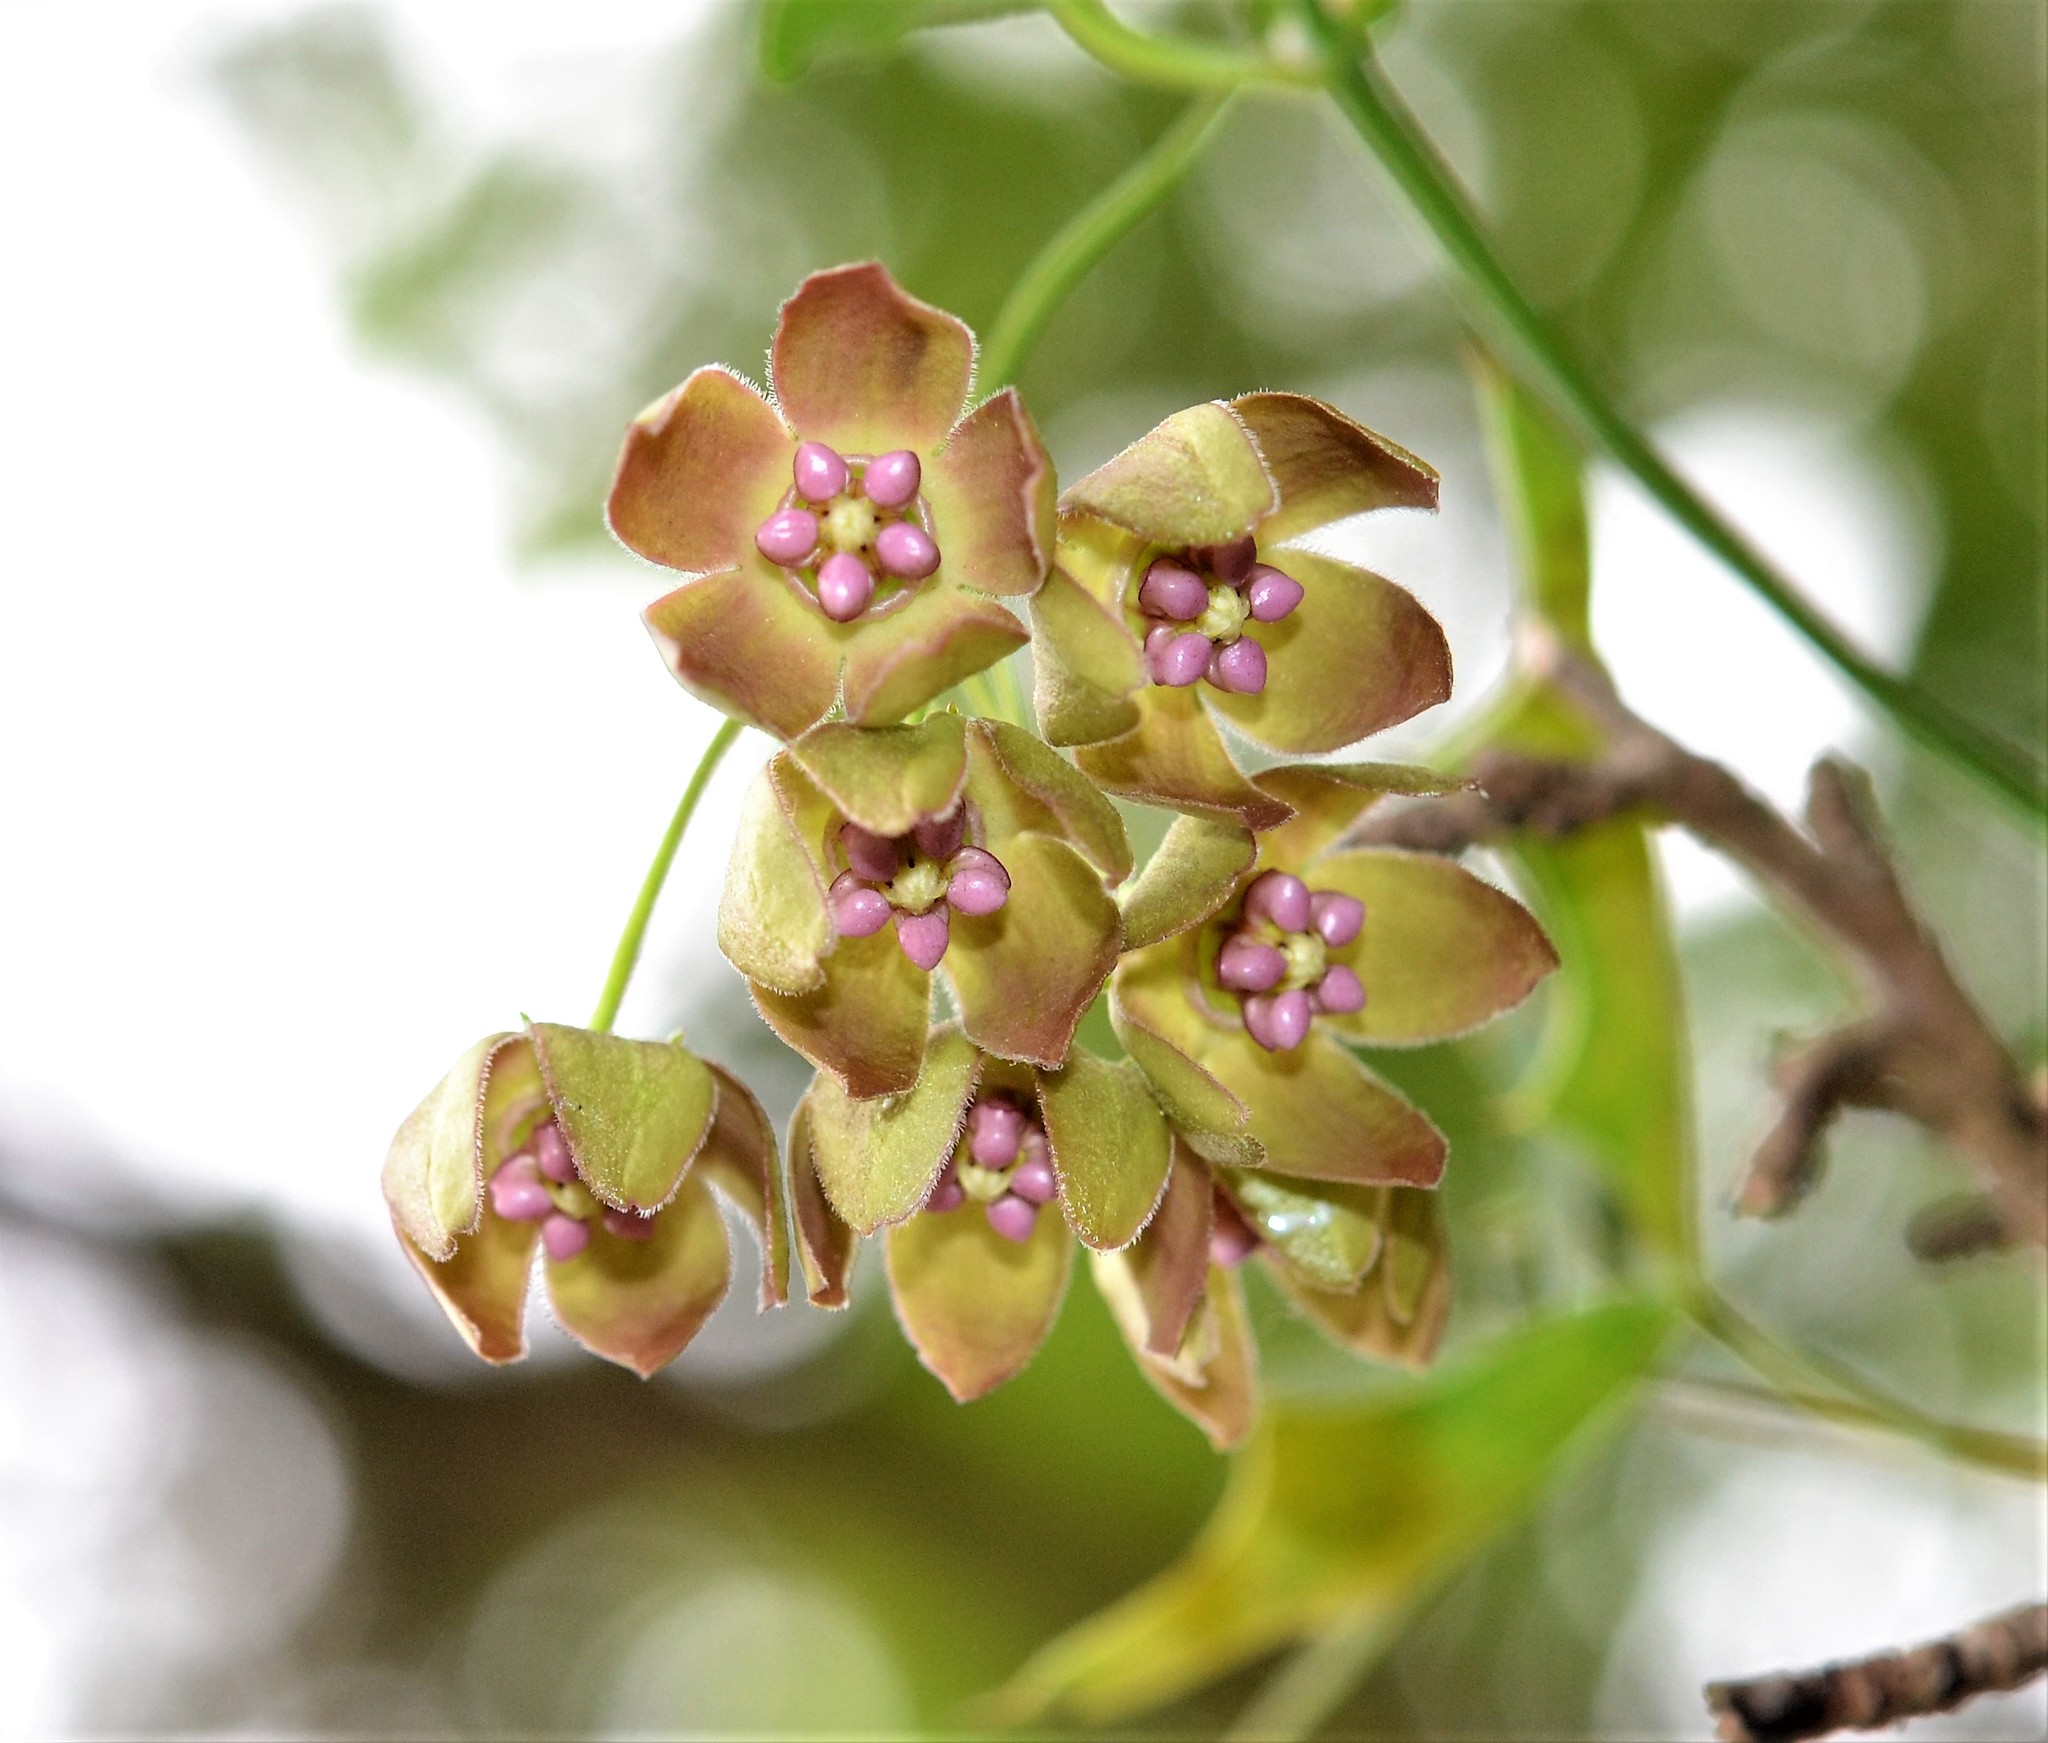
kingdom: Plantae
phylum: Tracheophyta
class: Magnoliopsida
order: Gentianales
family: Apocynaceae
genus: Funastrum
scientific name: Funastrum crispum
